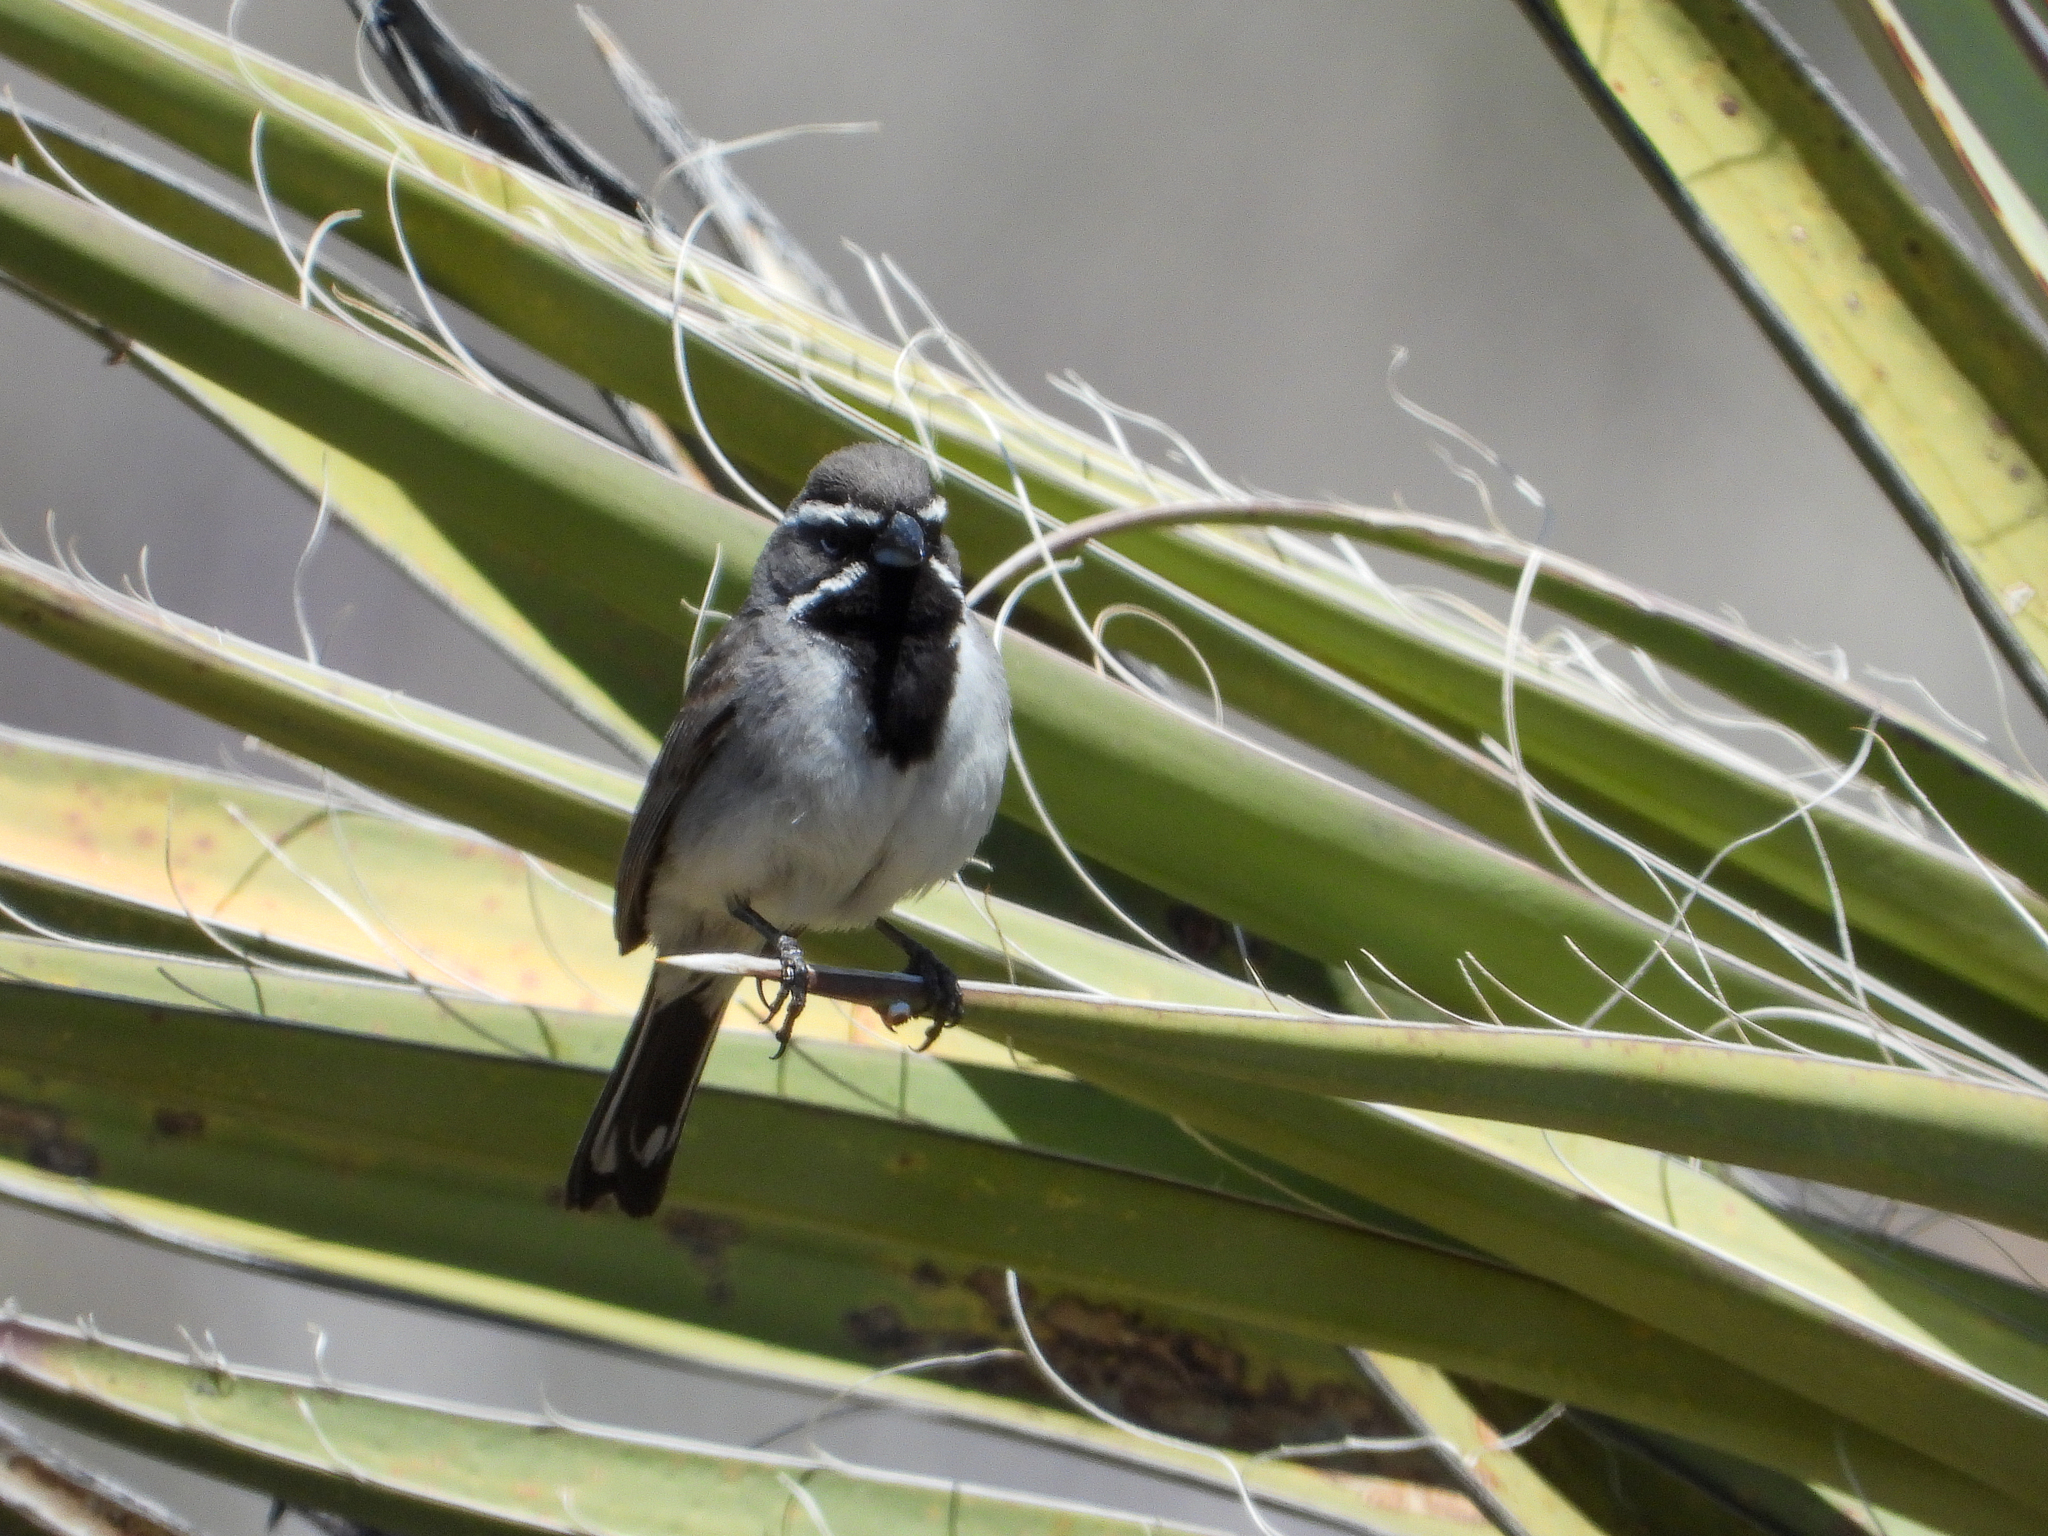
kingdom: Animalia
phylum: Chordata
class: Aves
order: Passeriformes
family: Passerellidae
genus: Amphispiza
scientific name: Amphispiza bilineata
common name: Black-throated sparrow
